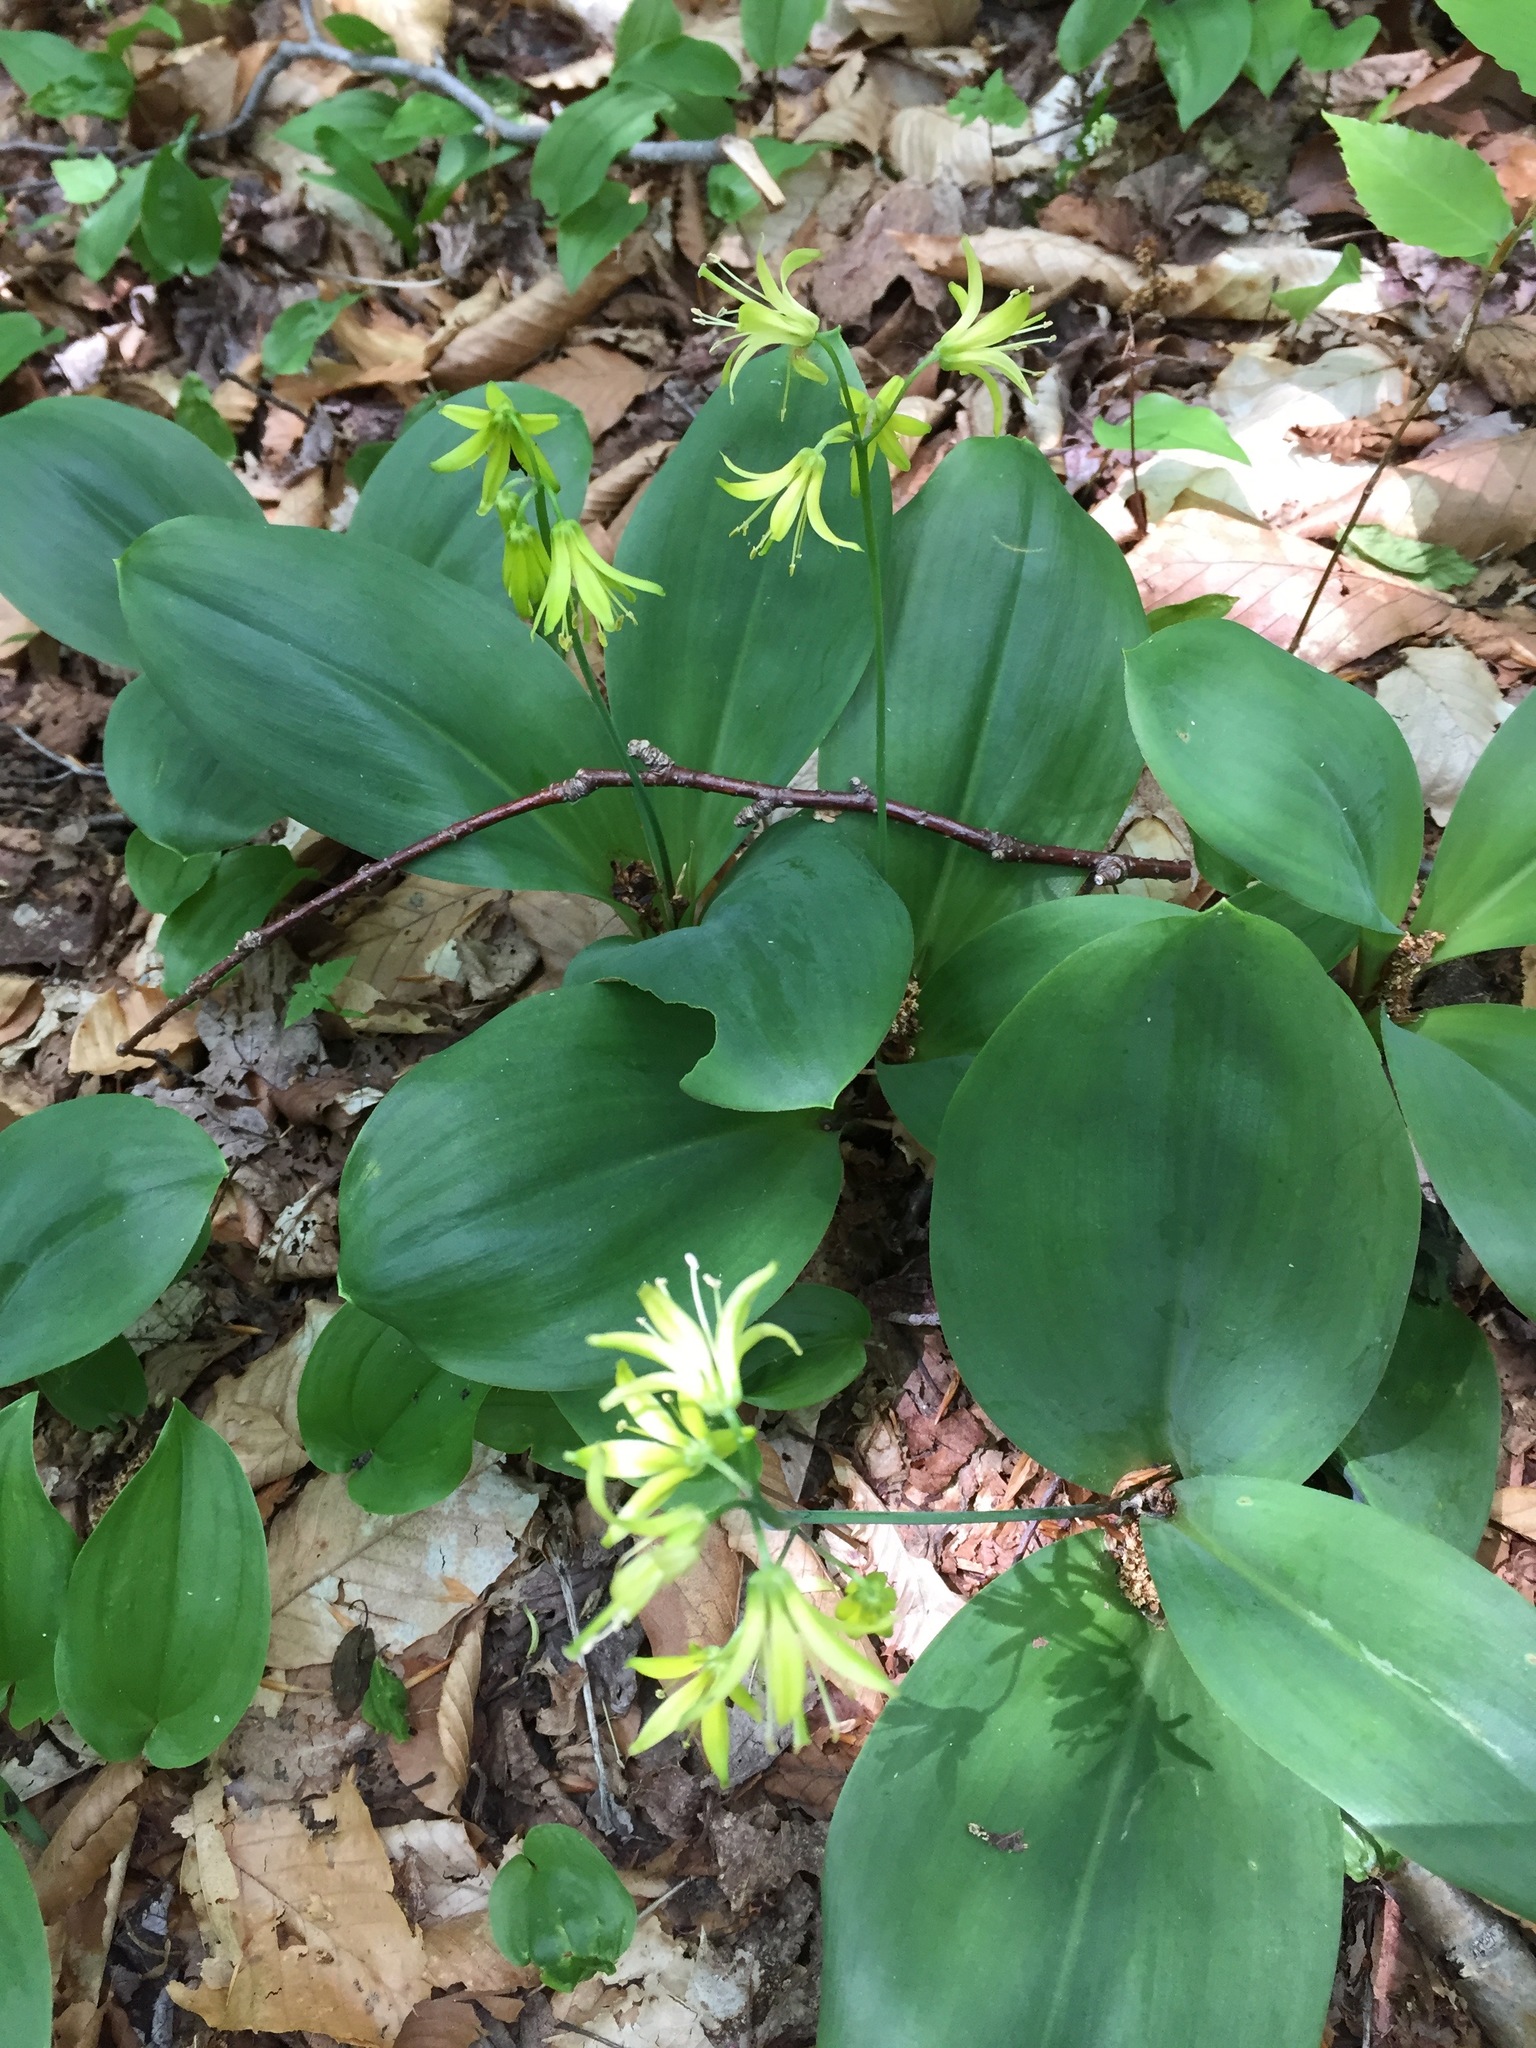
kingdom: Plantae
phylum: Tracheophyta
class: Liliopsida
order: Liliales
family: Liliaceae
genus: Clintonia
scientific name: Clintonia borealis
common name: Yellow clintonia
